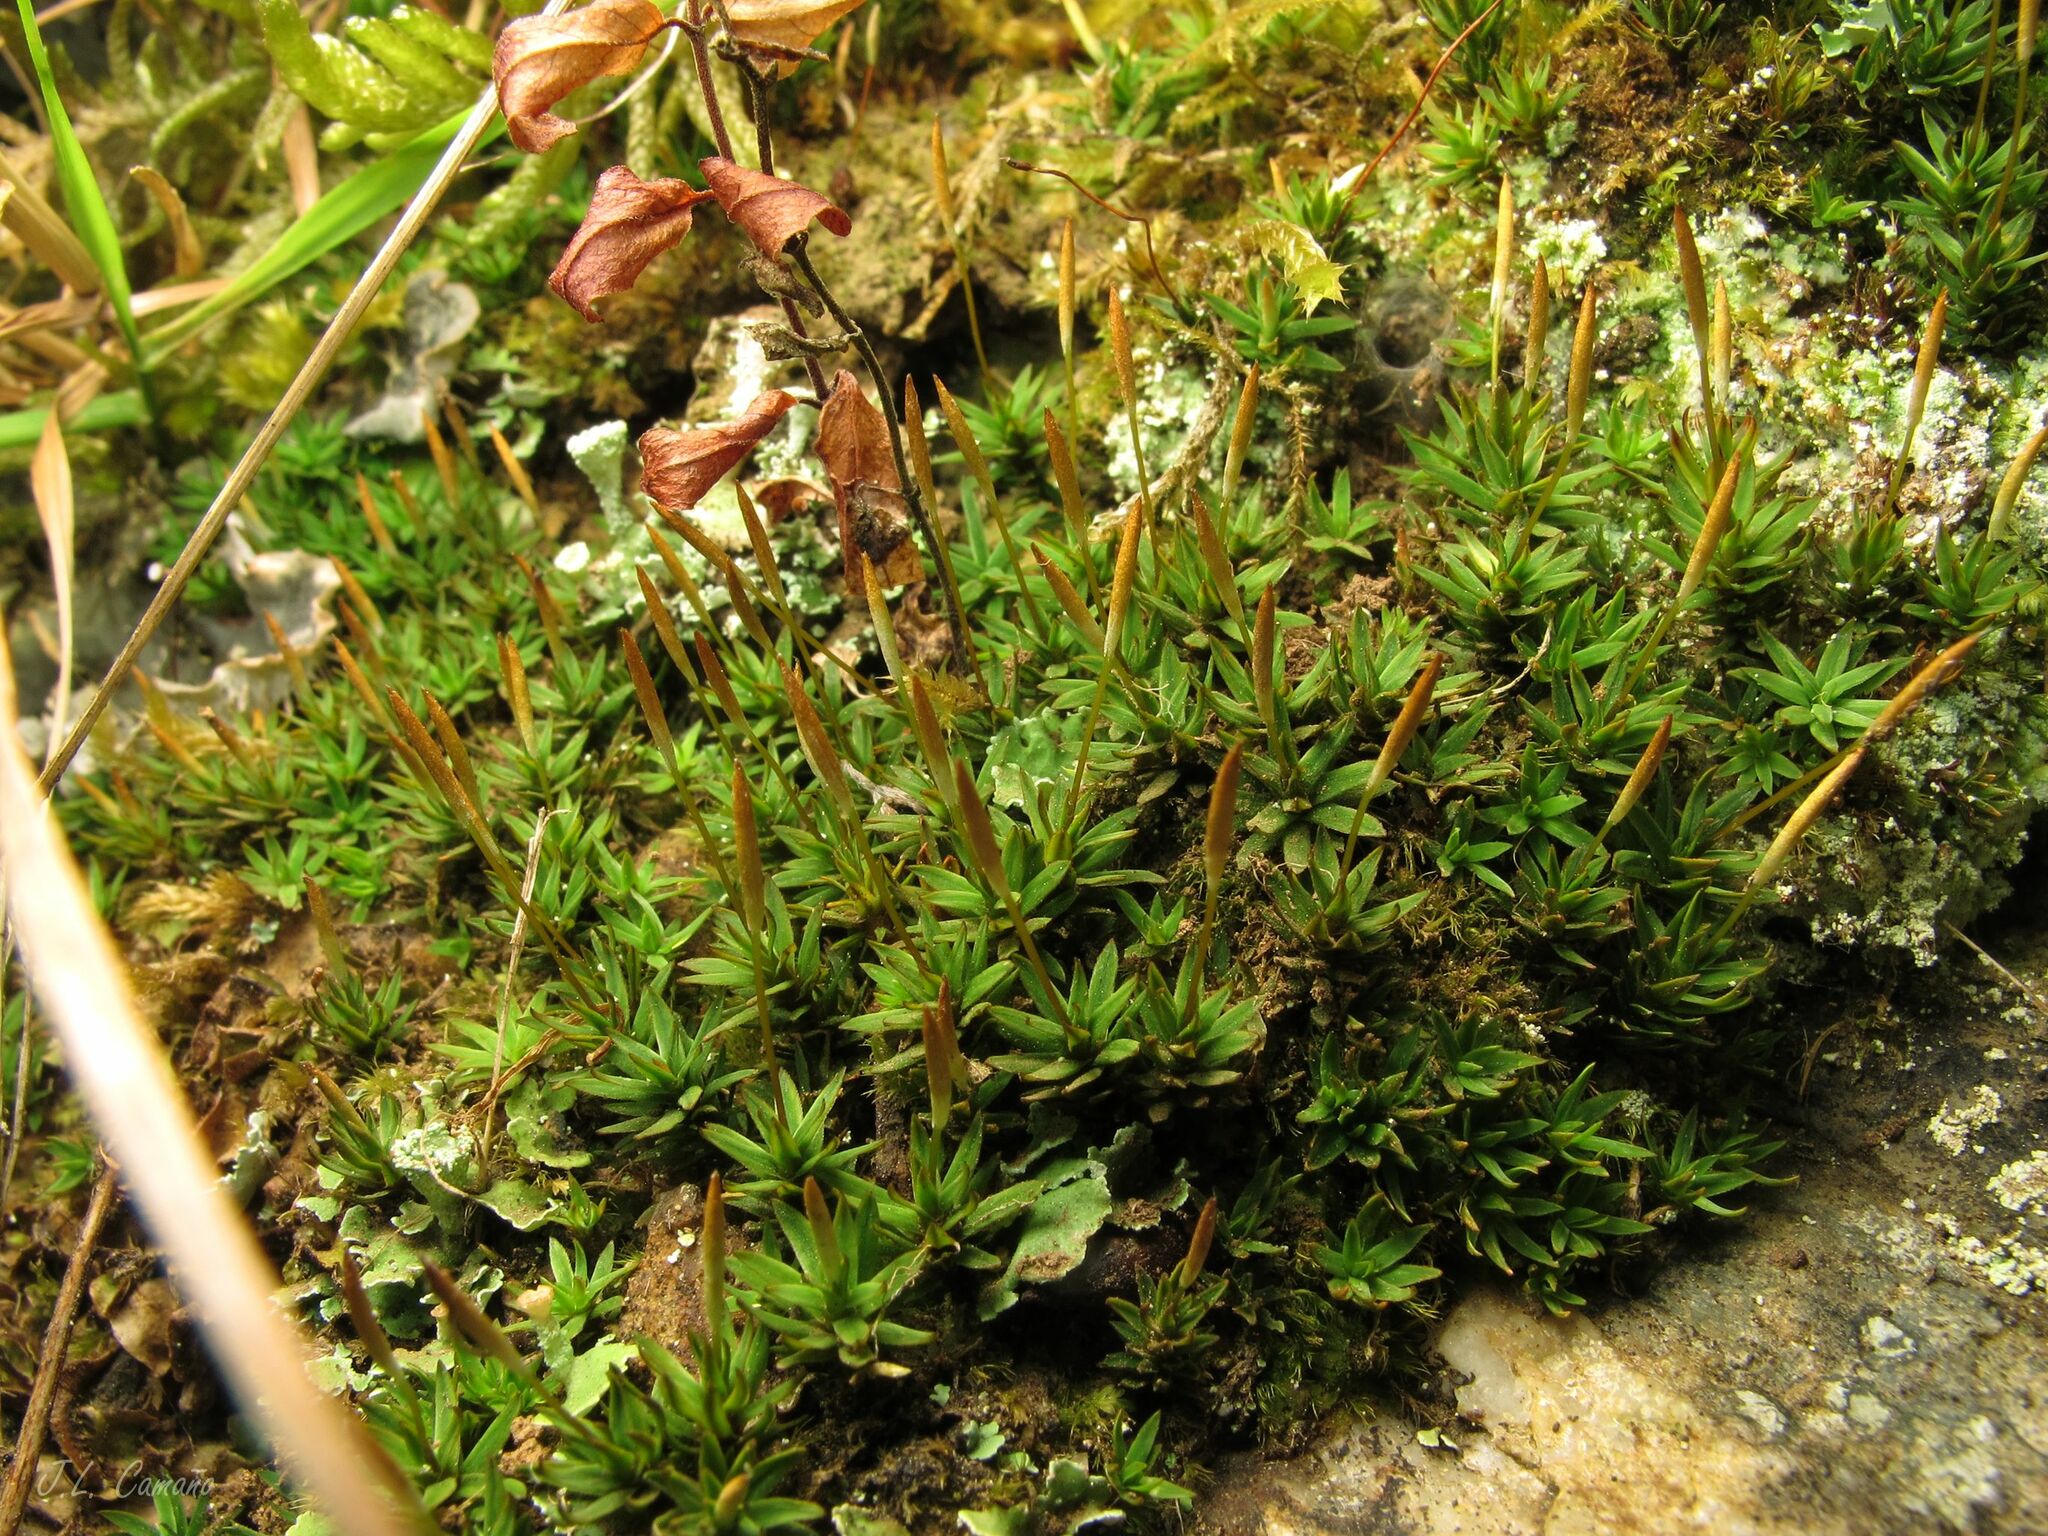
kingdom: Plantae
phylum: Bryophyta
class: Polytrichopsida
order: Polytrichales
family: Polytrichaceae
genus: Pogonatum
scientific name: Pogonatum aloides
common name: Aloe haircap
